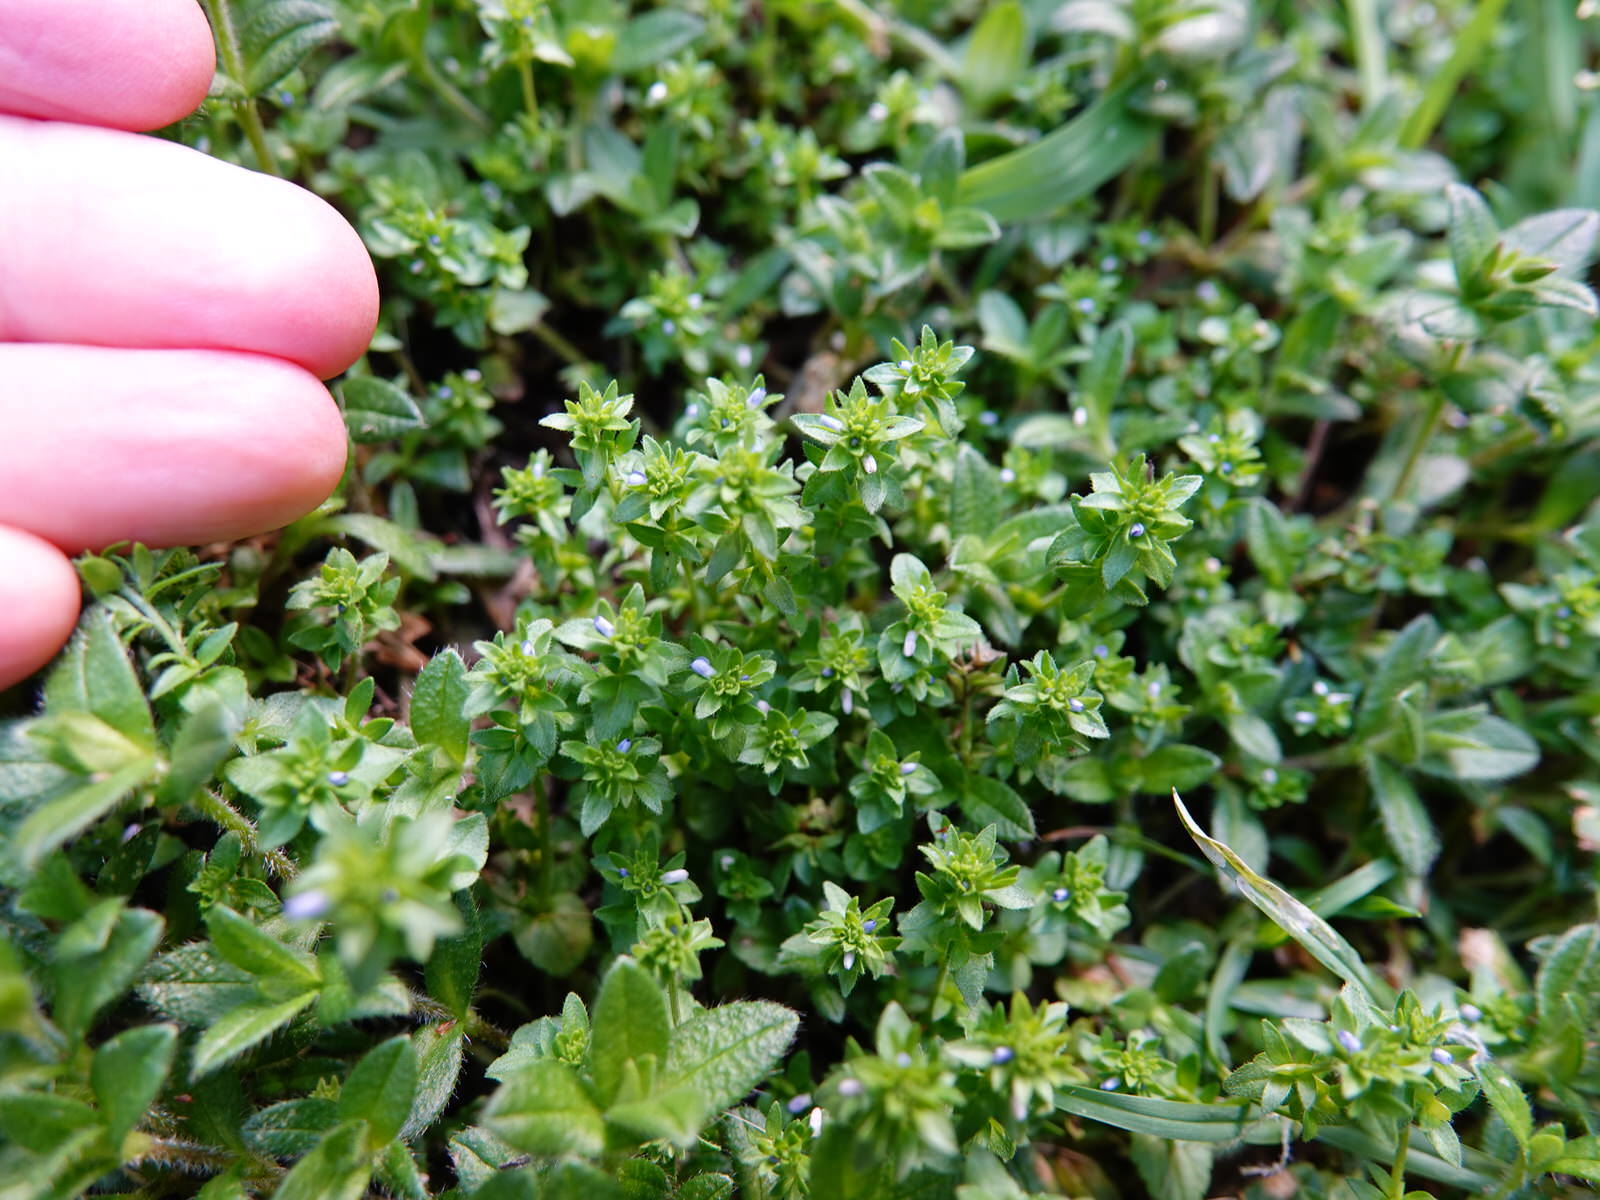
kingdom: Plantae
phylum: Tracheophyta
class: Magnoliopsida
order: Lamiales
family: Plantaginaceae
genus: Veronica
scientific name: Veronica arvensis
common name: Corn speedwell
